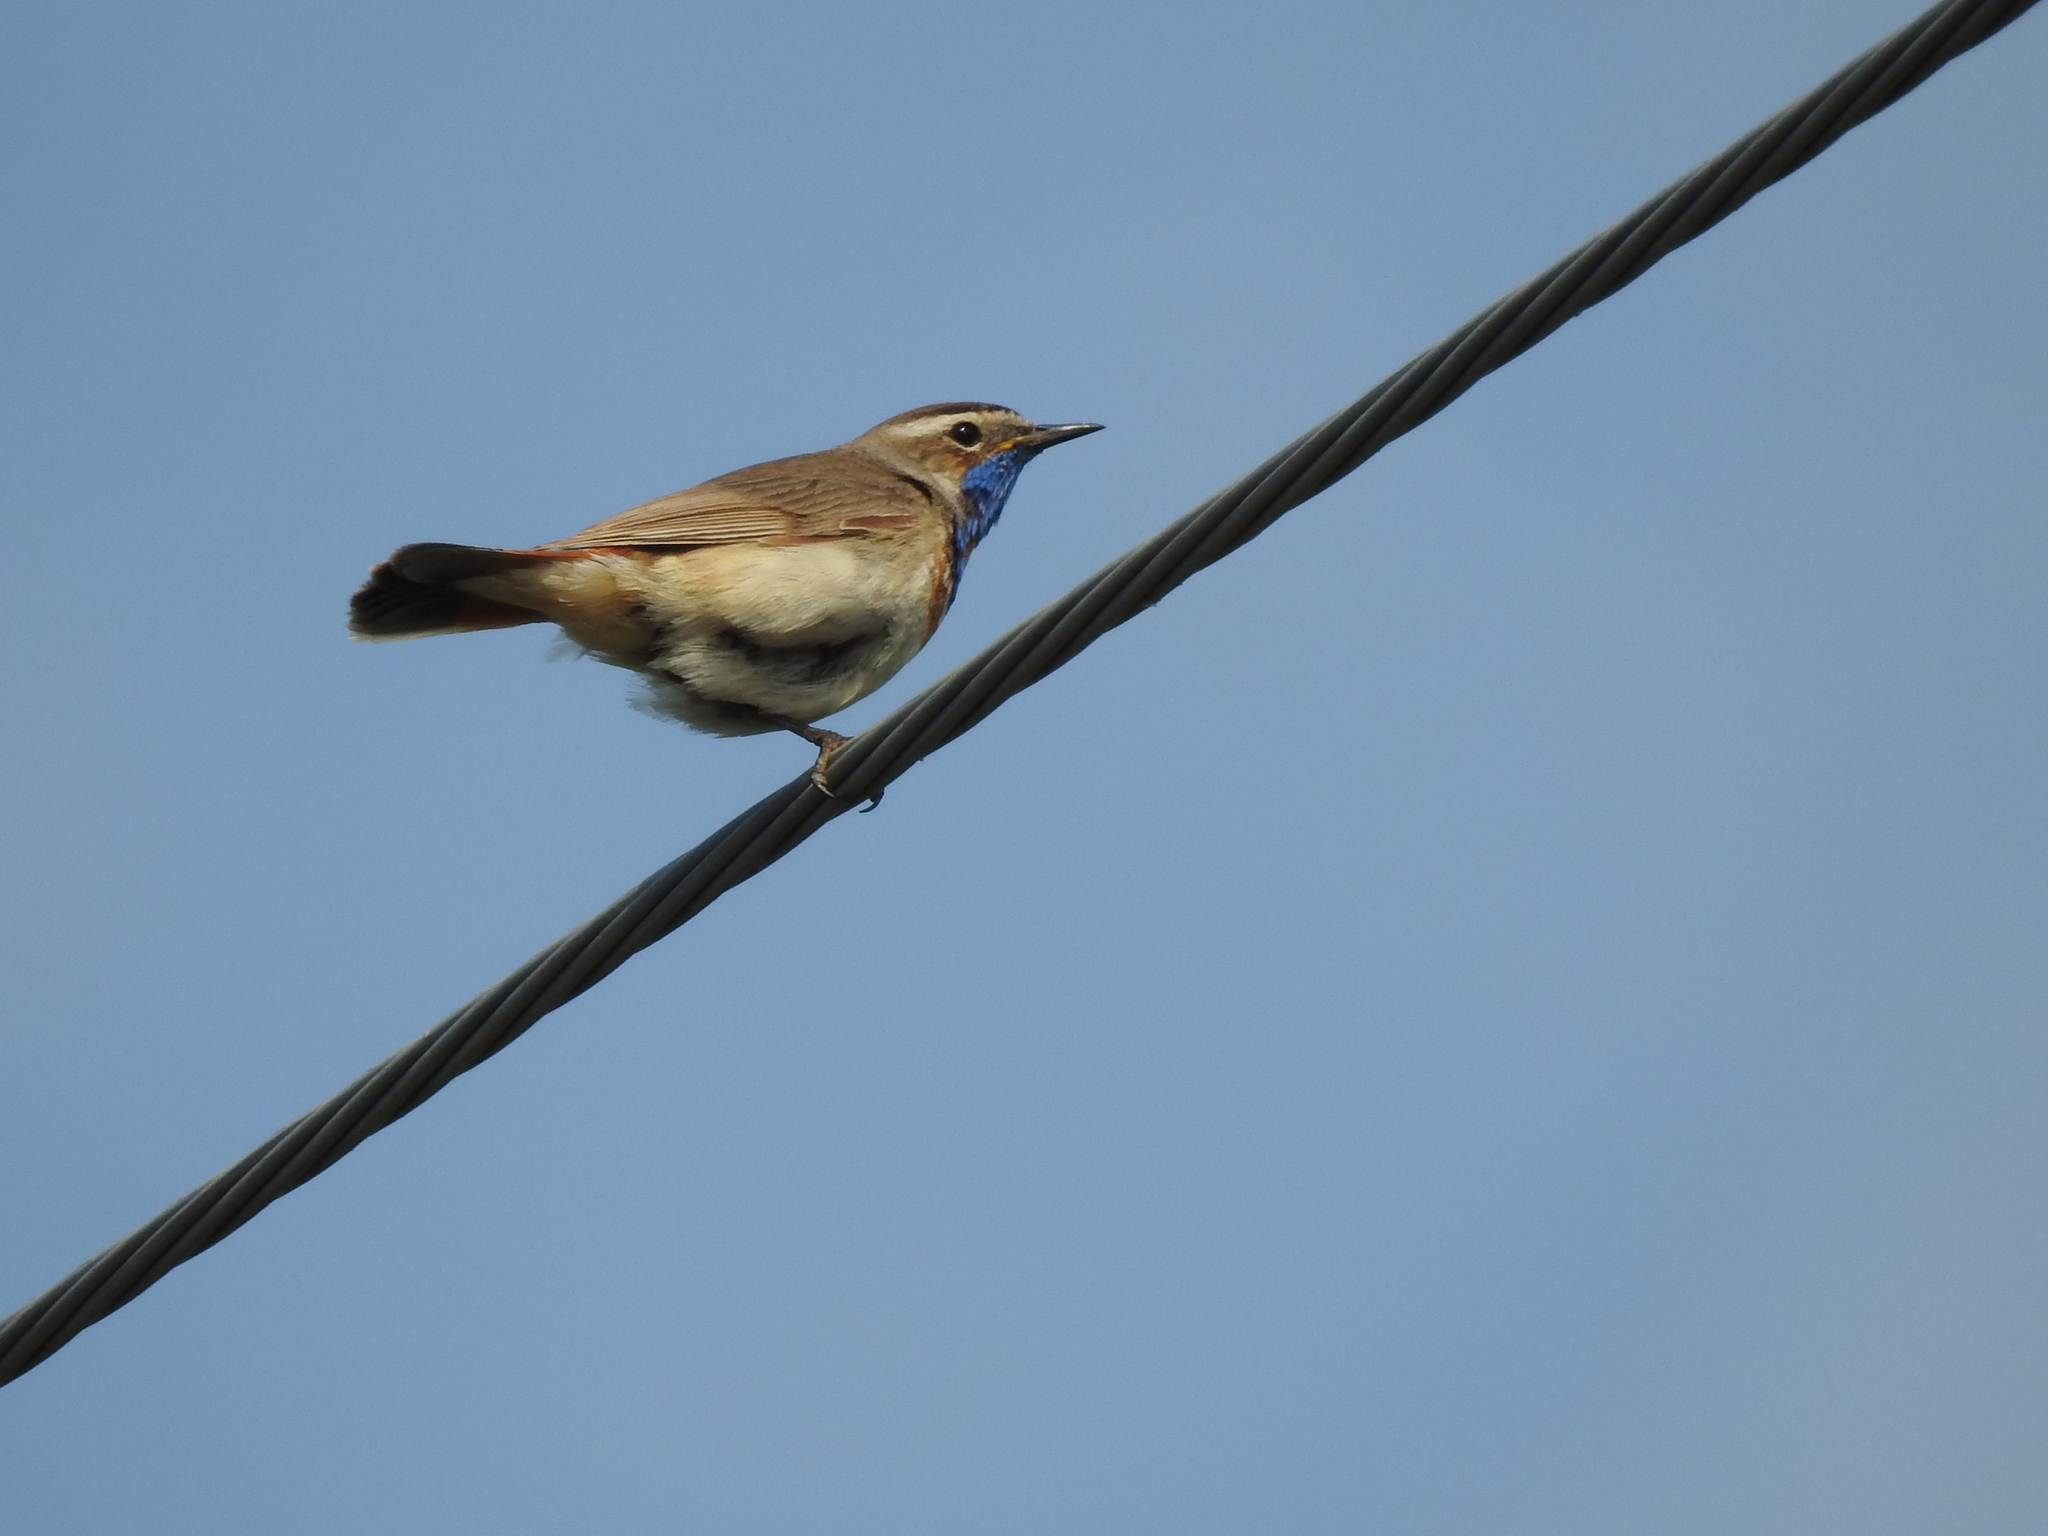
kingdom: Animalia
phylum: Chordata
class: Aves
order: Passeriformes
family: Muscicapidae
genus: Luscinia
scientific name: Luscinia svecica
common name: Bluethroat
